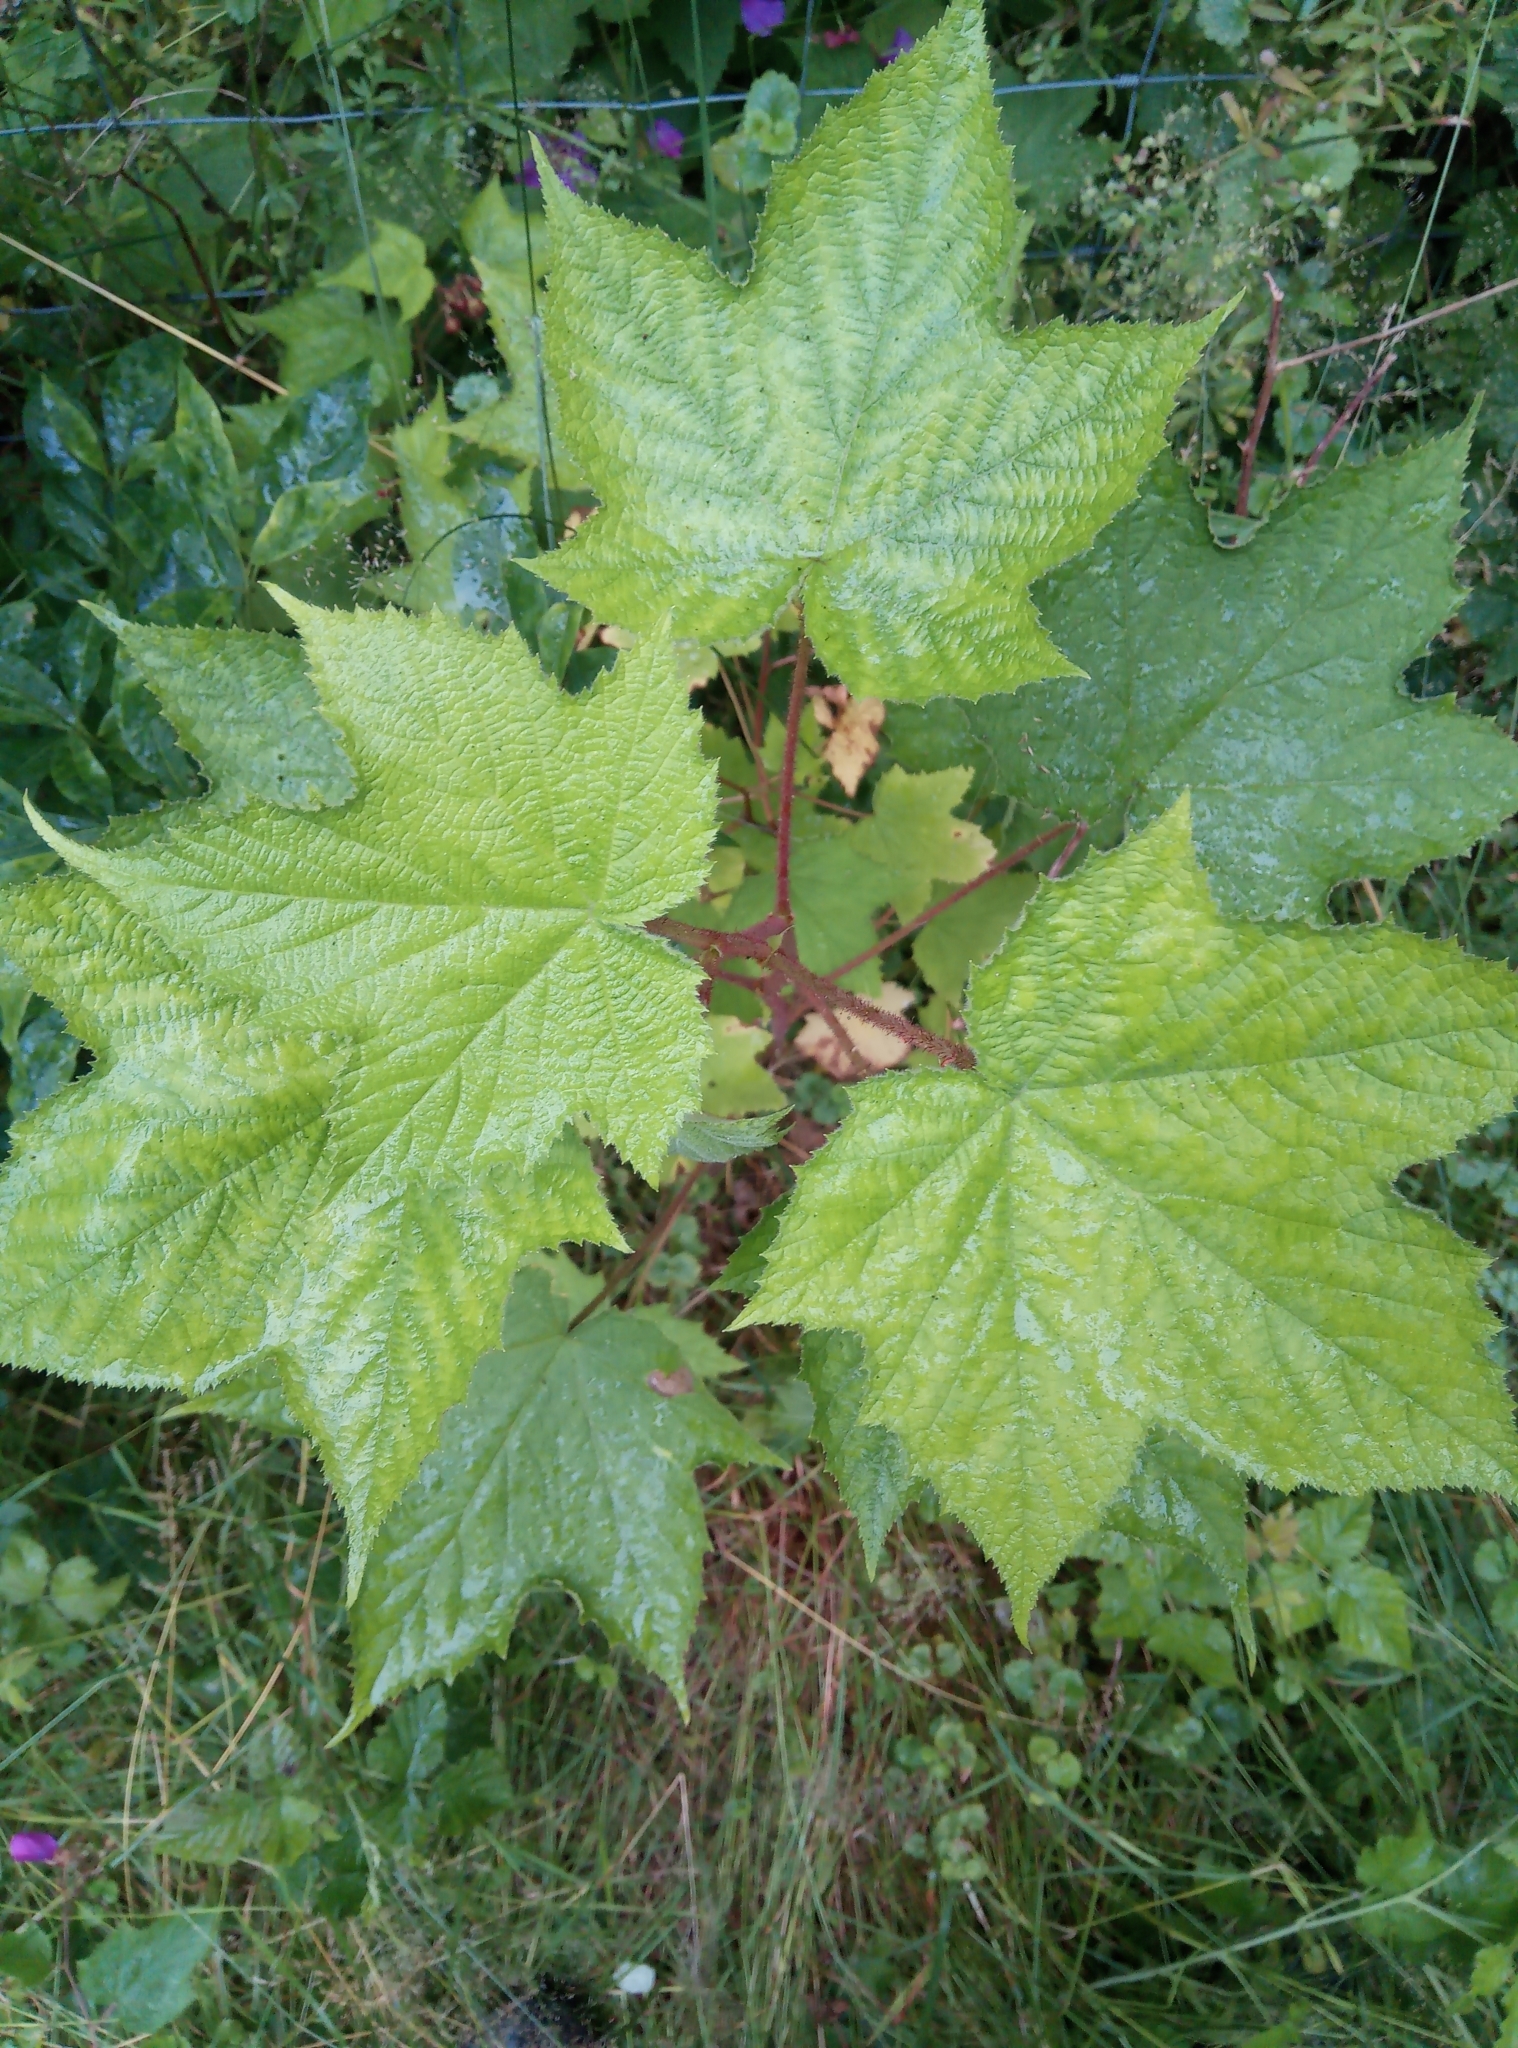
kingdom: Plantae
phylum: Tracheophyta
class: Magnoliopsida
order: Rosales
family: Rosaceae
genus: Rubus
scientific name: Rubus odoratus
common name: Purple-flowered raspberry
